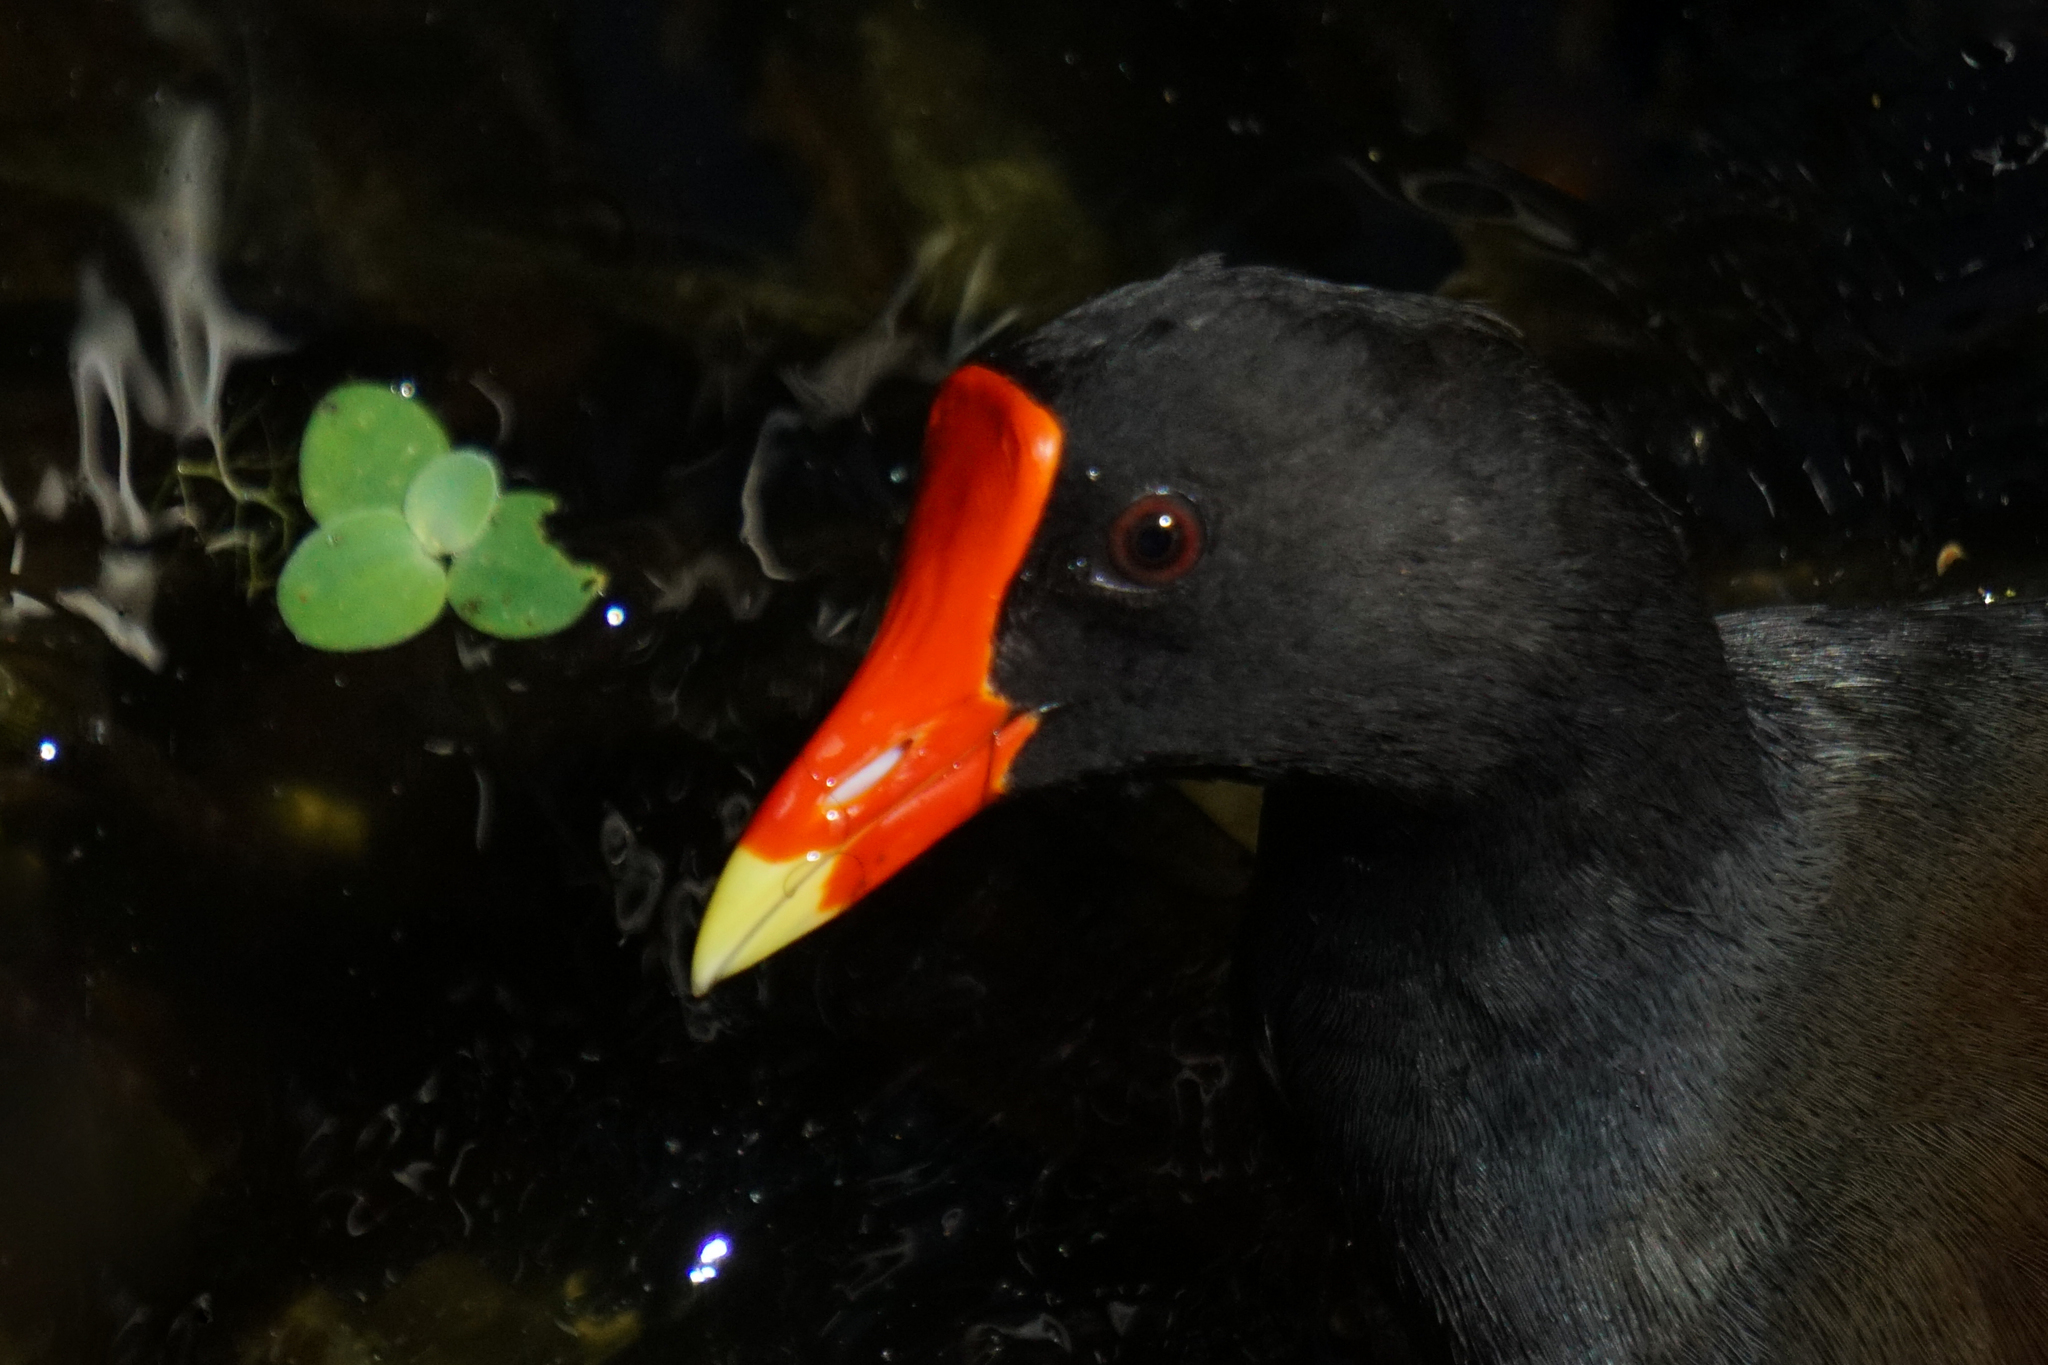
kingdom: Animalia
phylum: Chordata
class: Aves
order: Gruiformes
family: Rallidae
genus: Gallinula
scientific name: Gallinula chloropus
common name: Common moorhen
